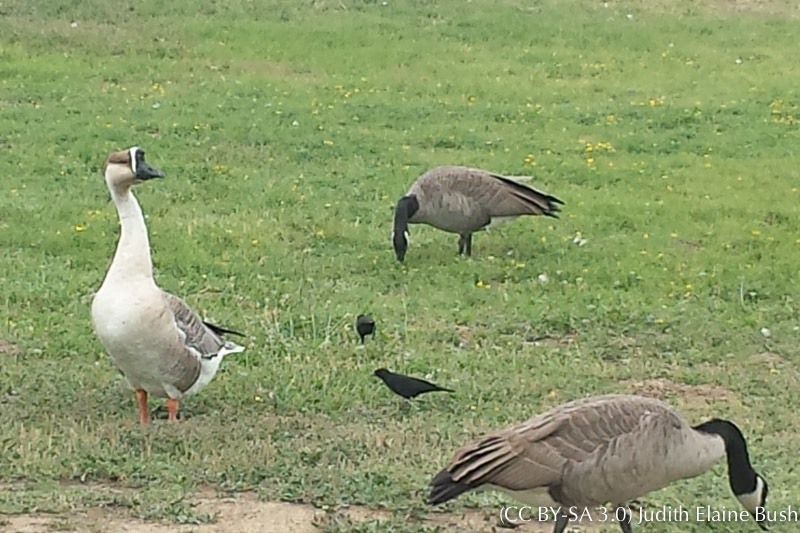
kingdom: Animalia
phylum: Chordata
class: Aves
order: Anseriformes
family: Anatidae
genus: Anser
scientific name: Anser cygnoides
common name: Swan goose
